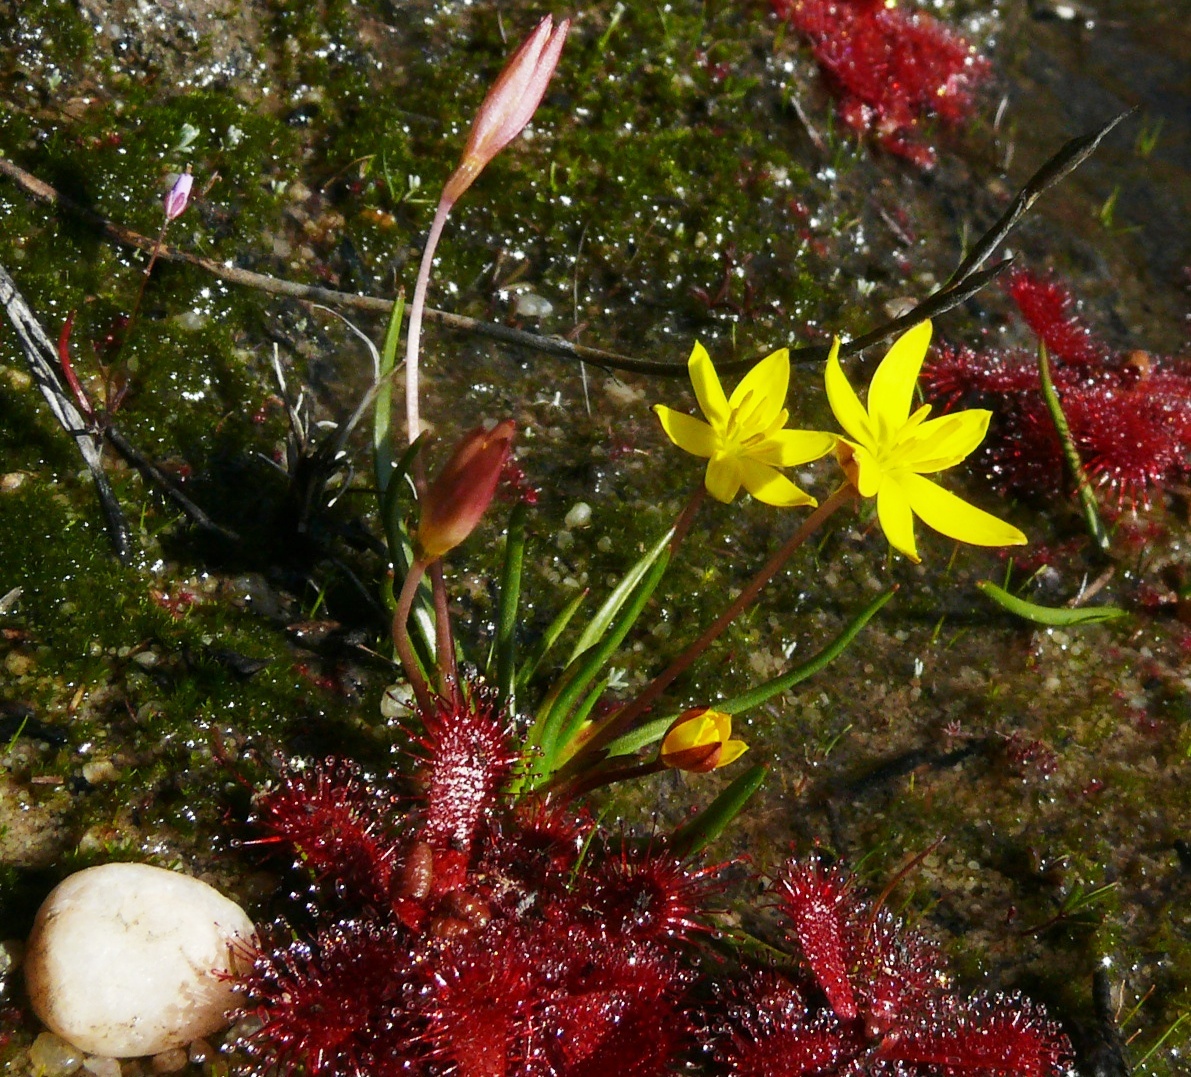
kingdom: Plantae
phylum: Tracheophyta
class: Liliopsida
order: Asparagales
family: Hypoxidaceae
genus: Pauridia
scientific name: Pauridia monticola
